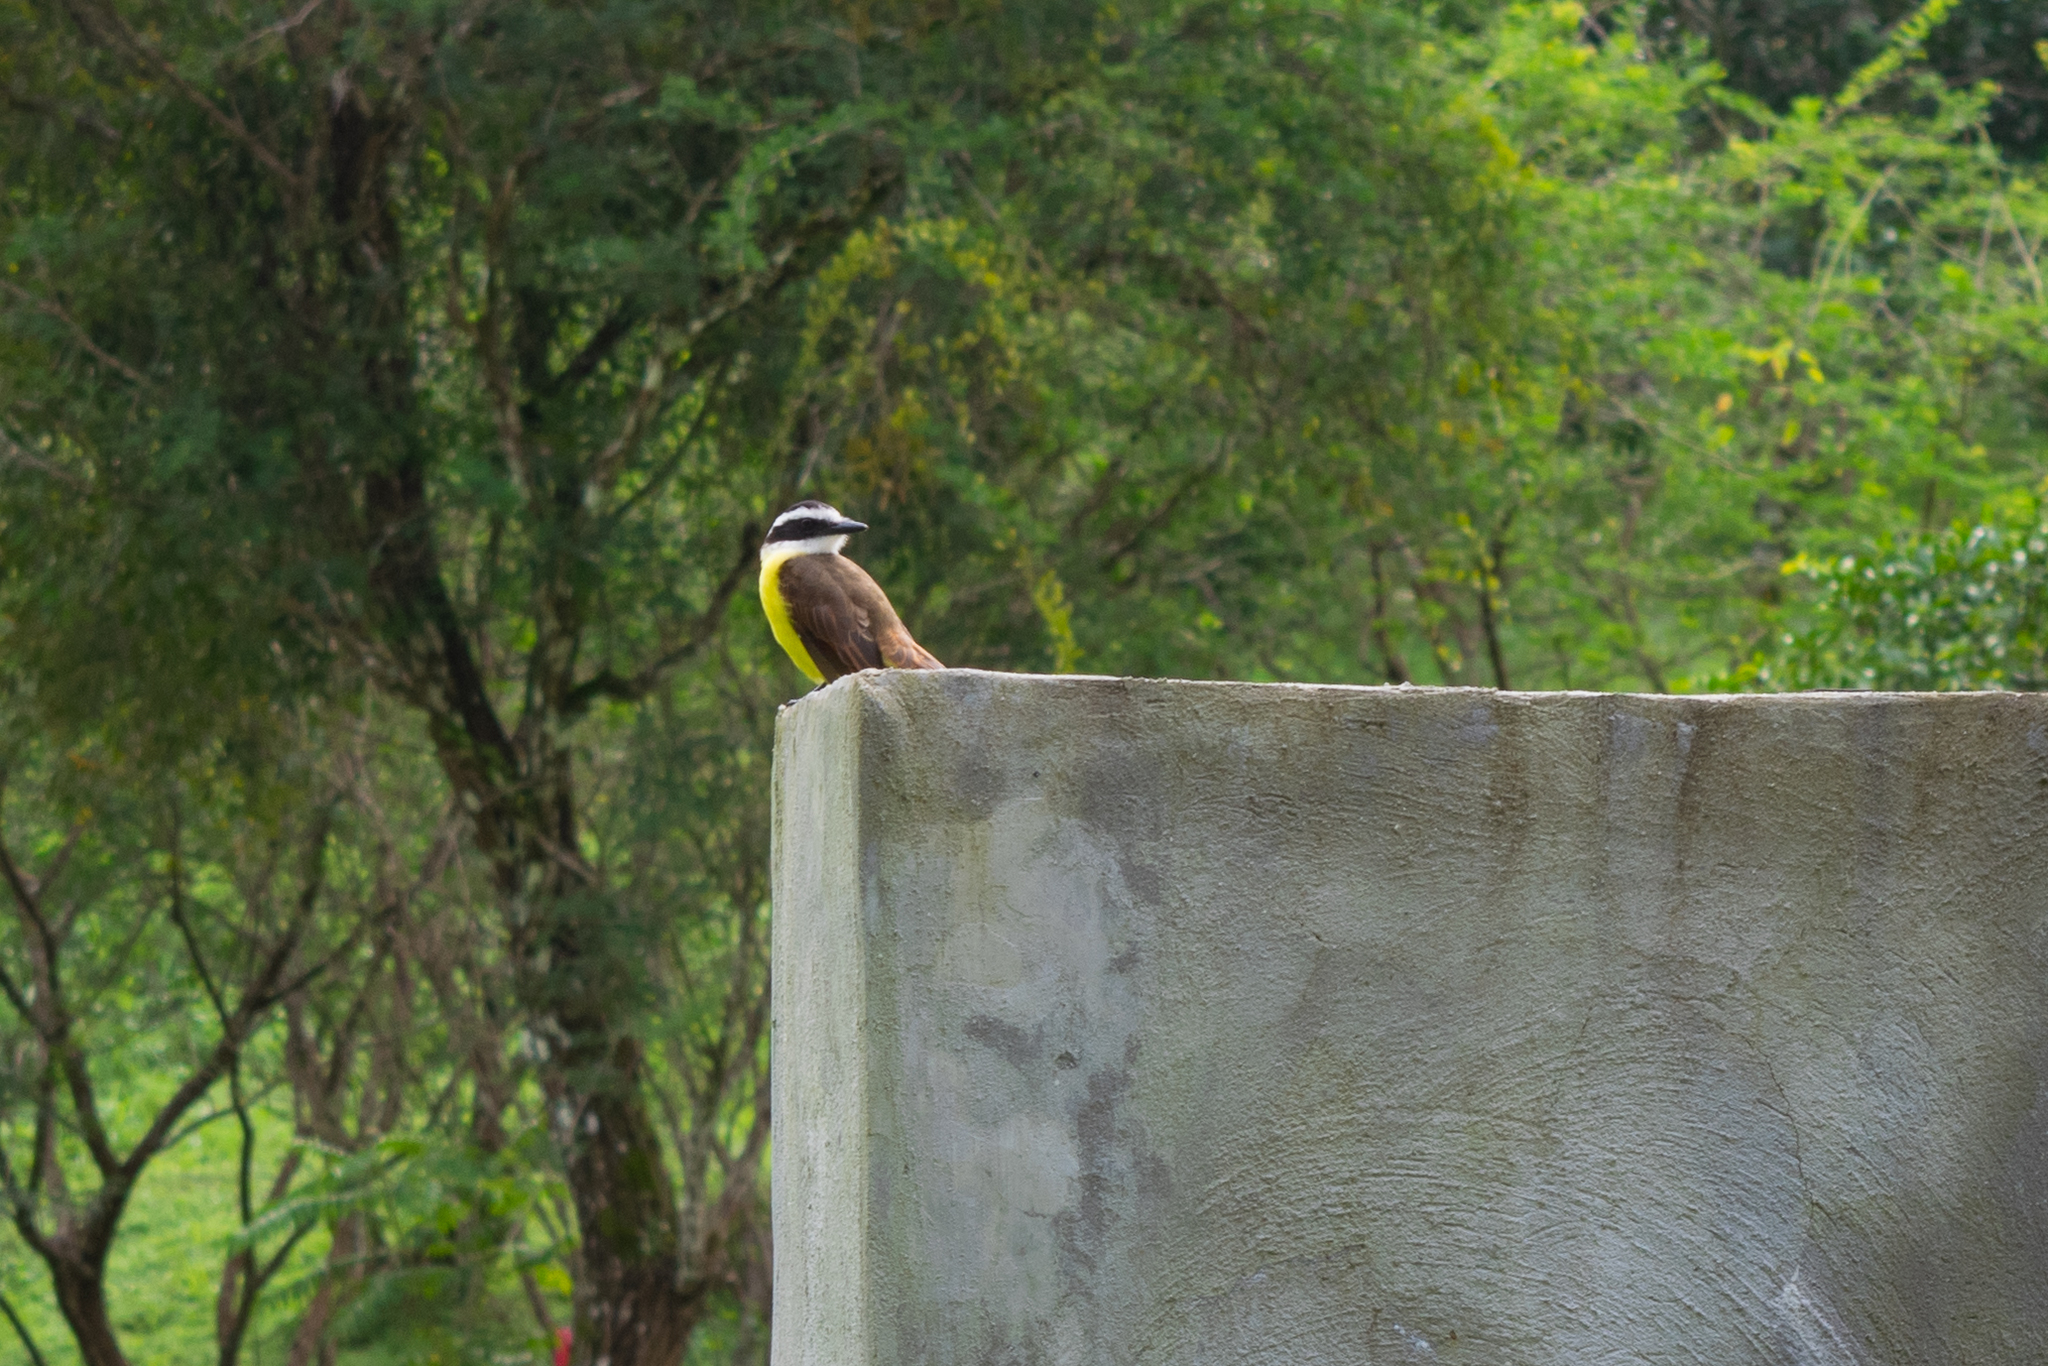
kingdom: Animalia
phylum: Chordata
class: Aves
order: Passeriformes
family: Tyrannidae
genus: Pitangus
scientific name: Pitangus sulphuratus
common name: Great kiskadee
